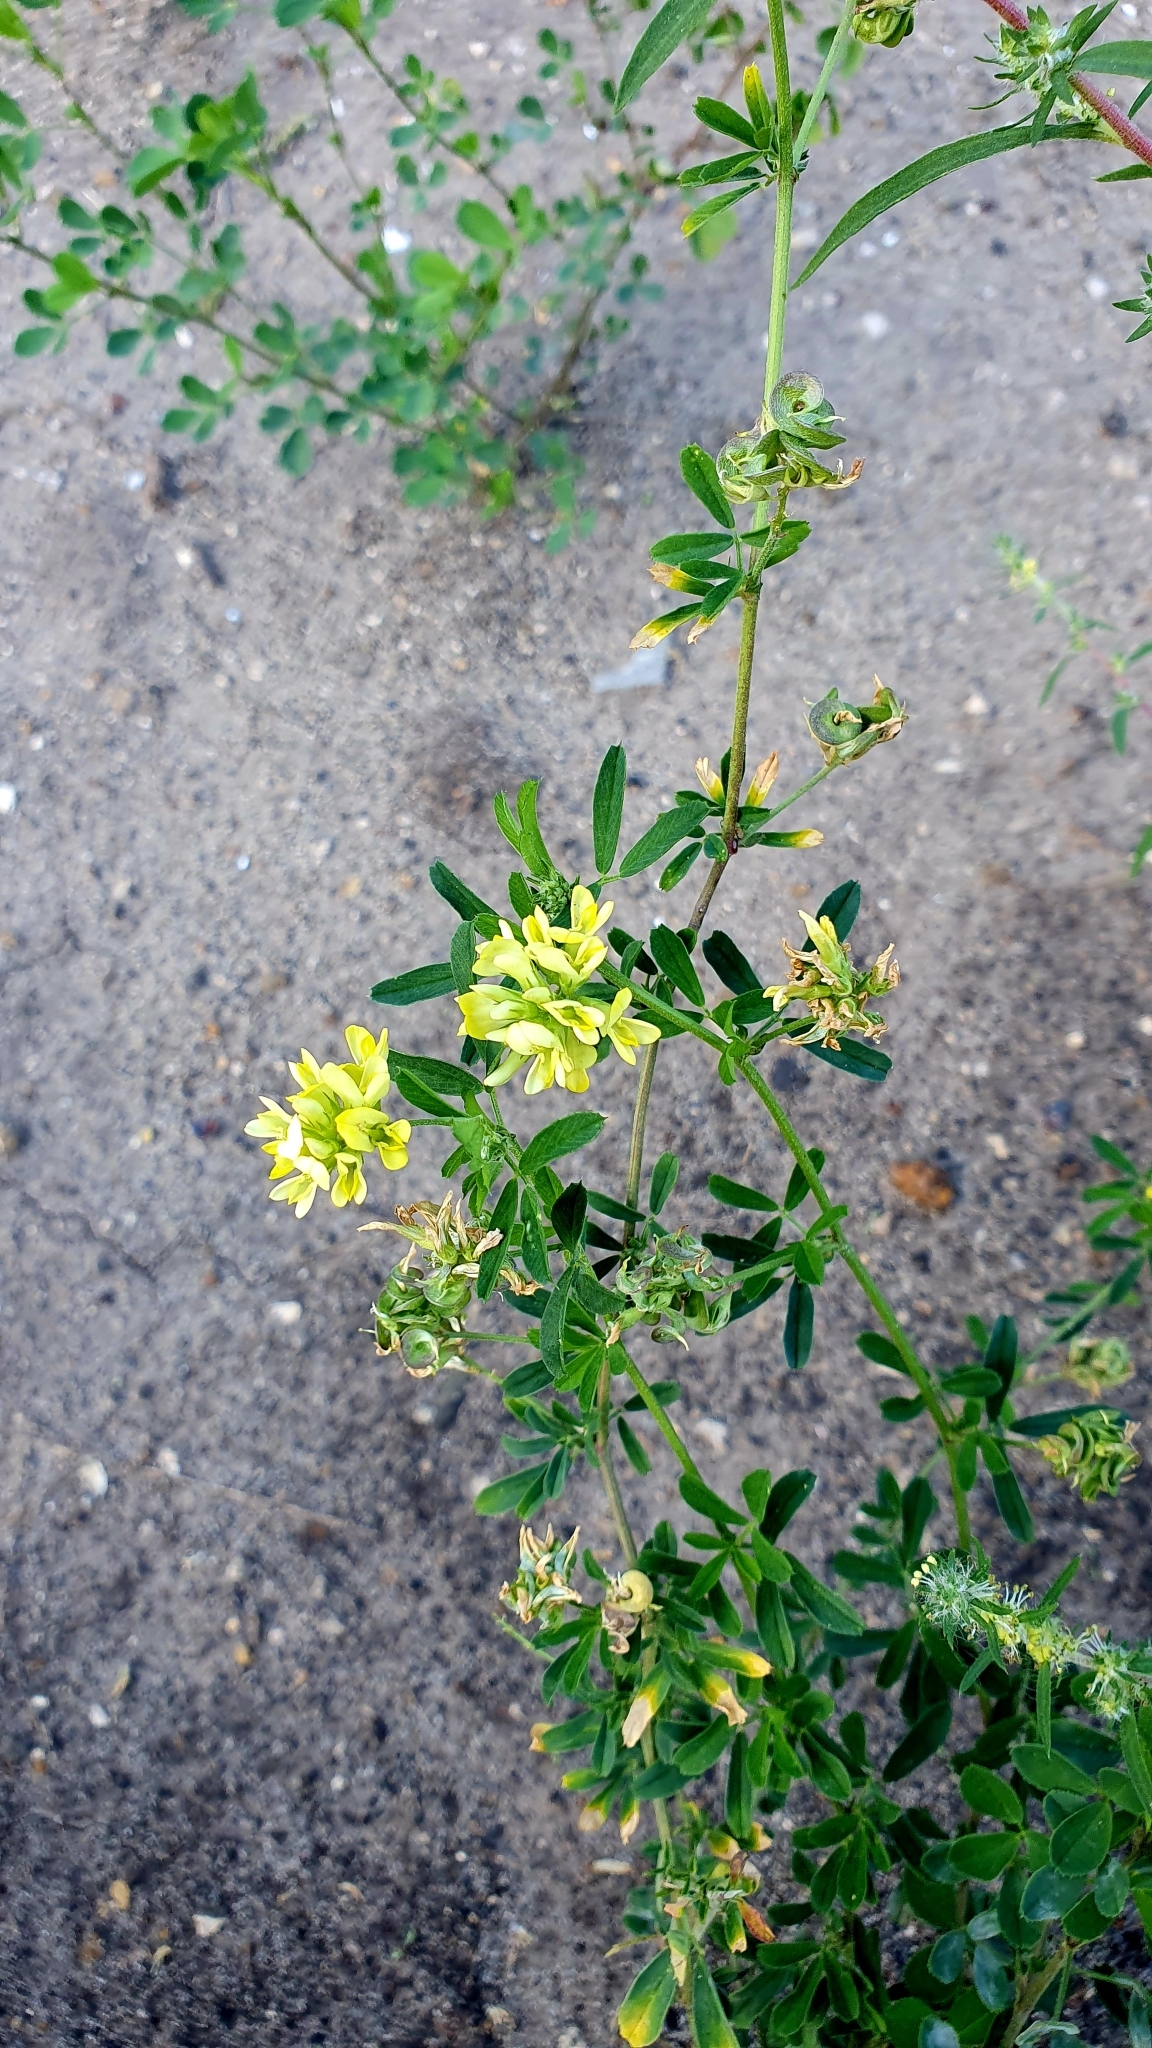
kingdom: Plantae
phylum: Tracheophyta
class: Magnoliopsida
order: Fabales
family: Fabaceae
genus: Medicago
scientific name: Medicago varia
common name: Sand lucerne
